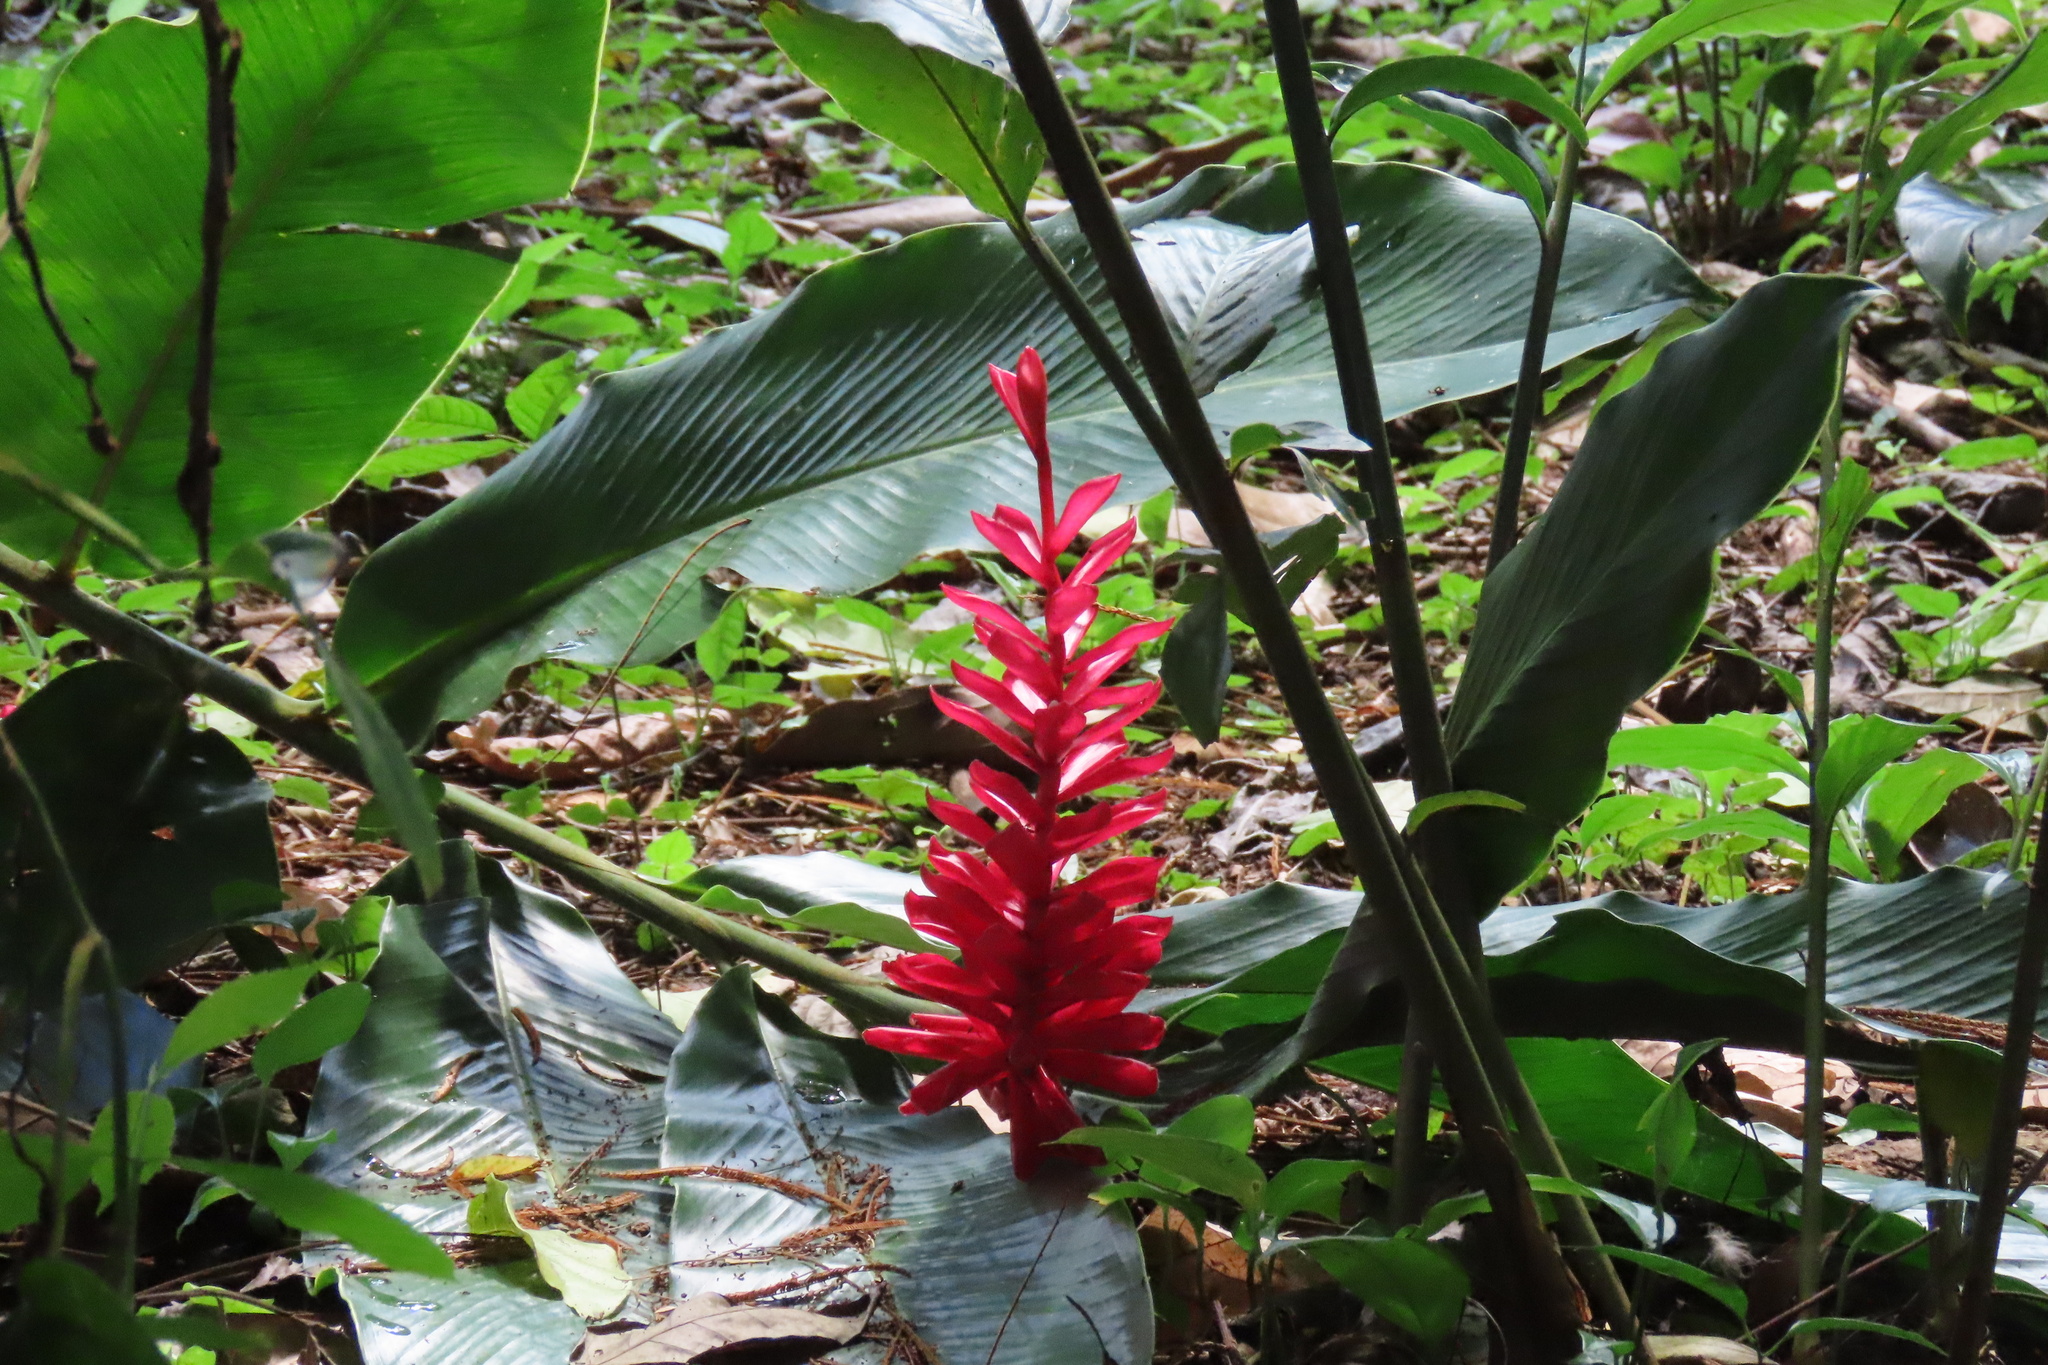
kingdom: Plantae
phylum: Tracheophyta
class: Liliopsida
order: Zingiberales
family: Zingiberaceae
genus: Alpinia
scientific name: Alpinia purpurata
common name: Red ginger
